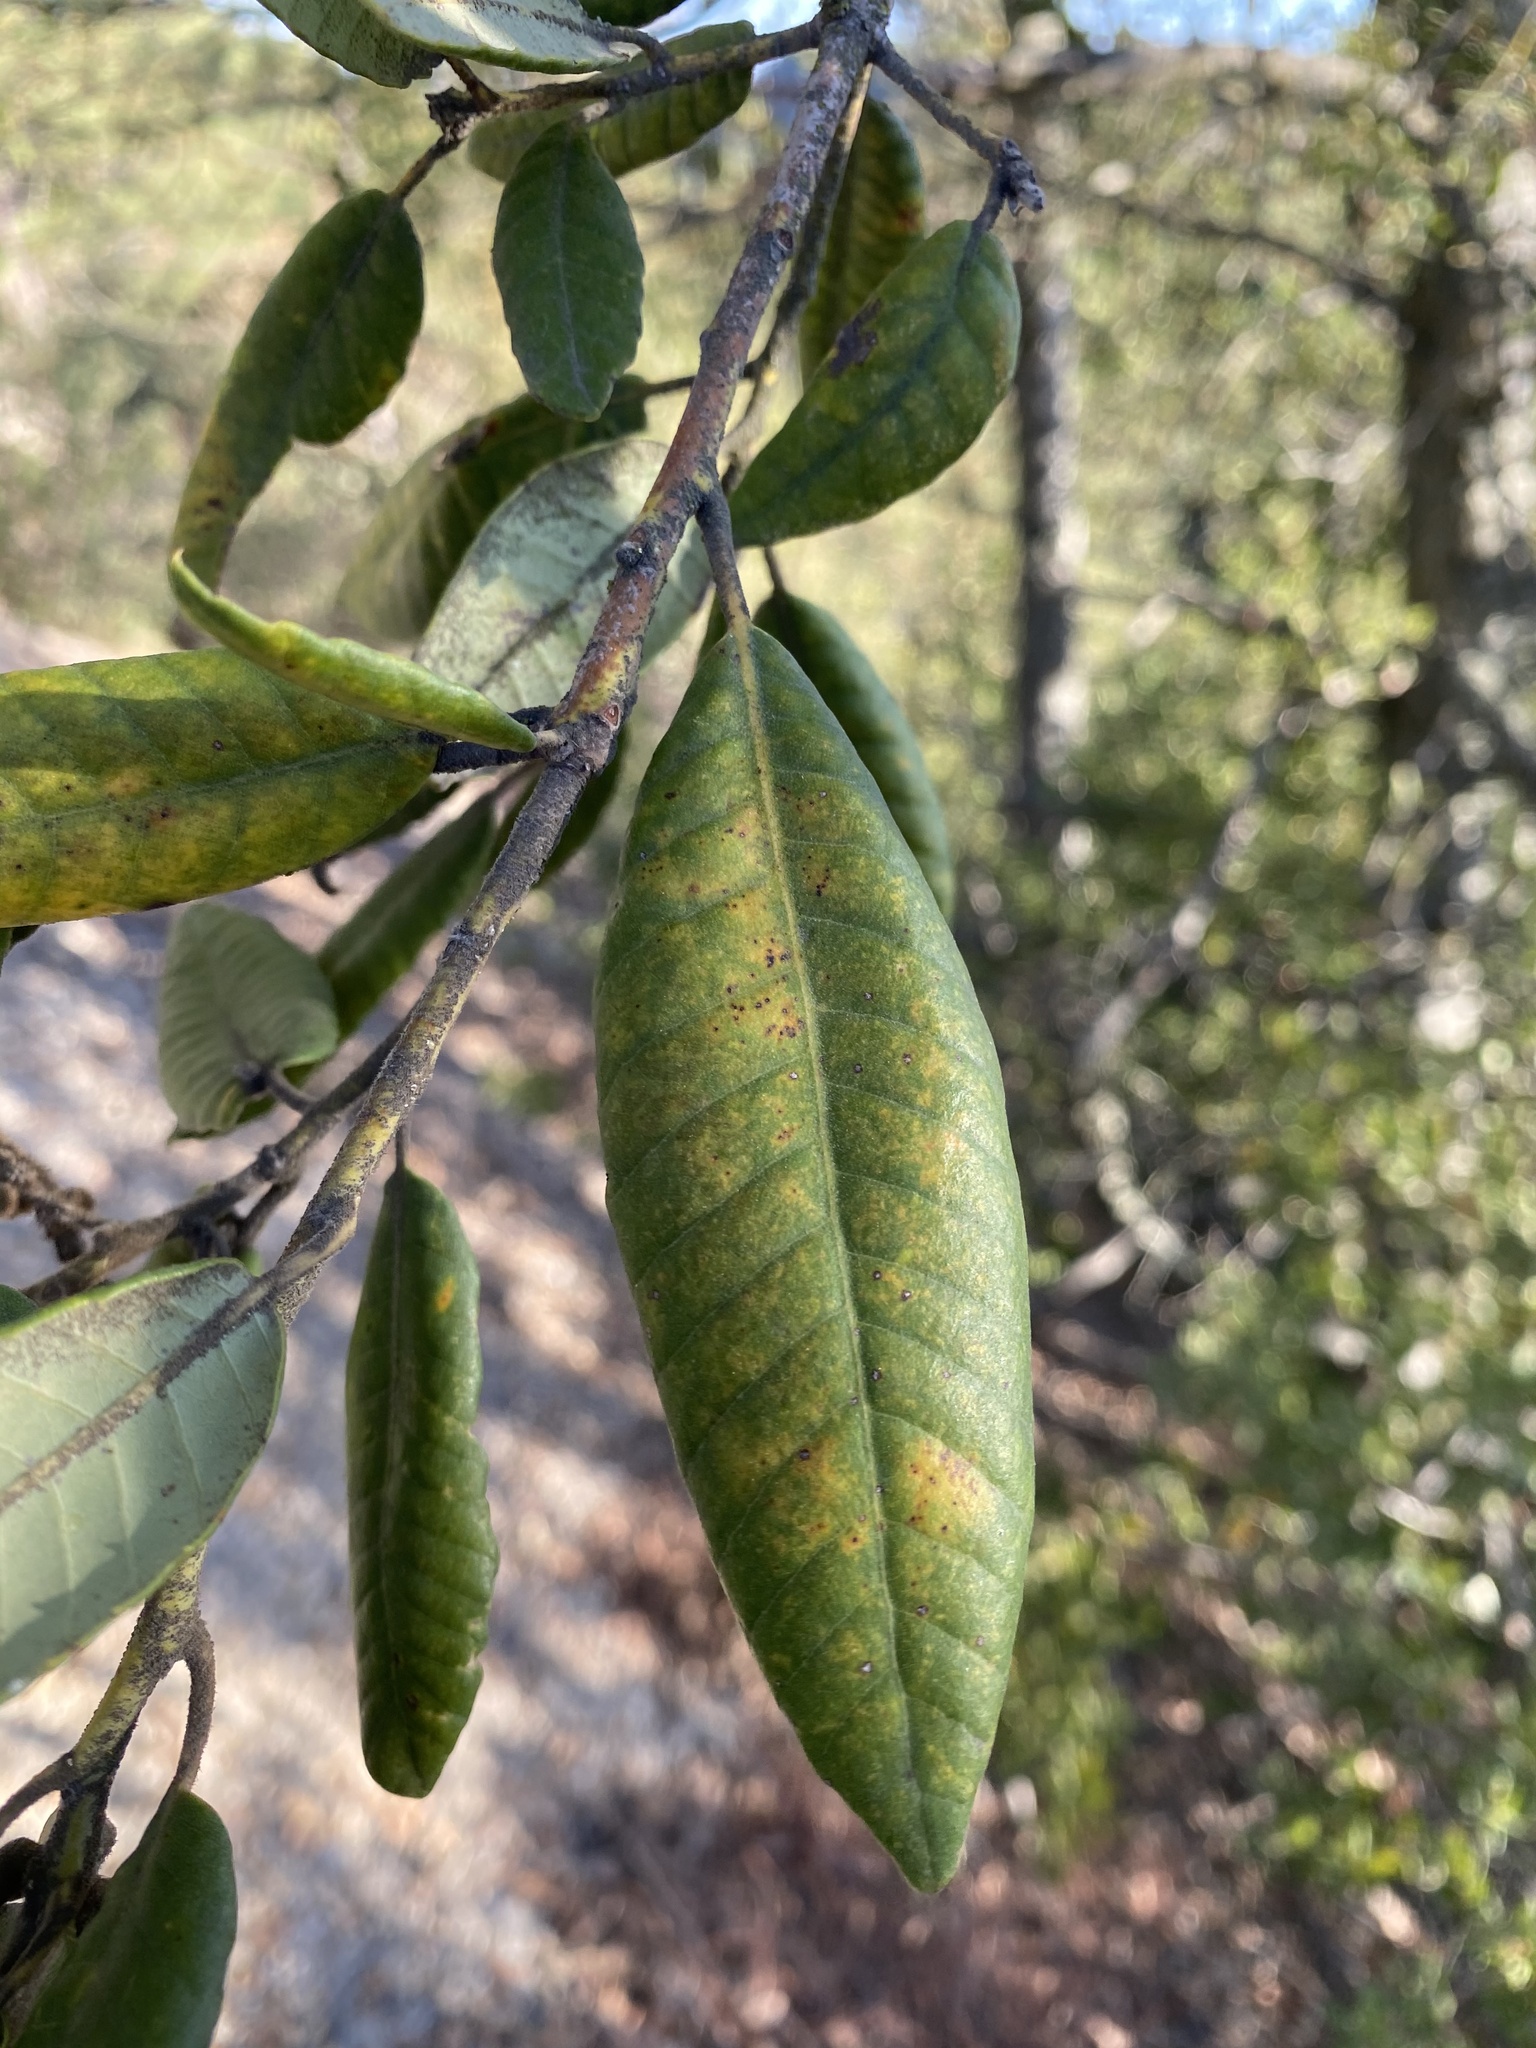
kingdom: Plantae
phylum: Tracheophyta
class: Magnoliopsida
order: Fagales
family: Fagaceae
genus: Notholithocarpus
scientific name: Notholithocarpus densiflorus
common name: Tan bark oak
